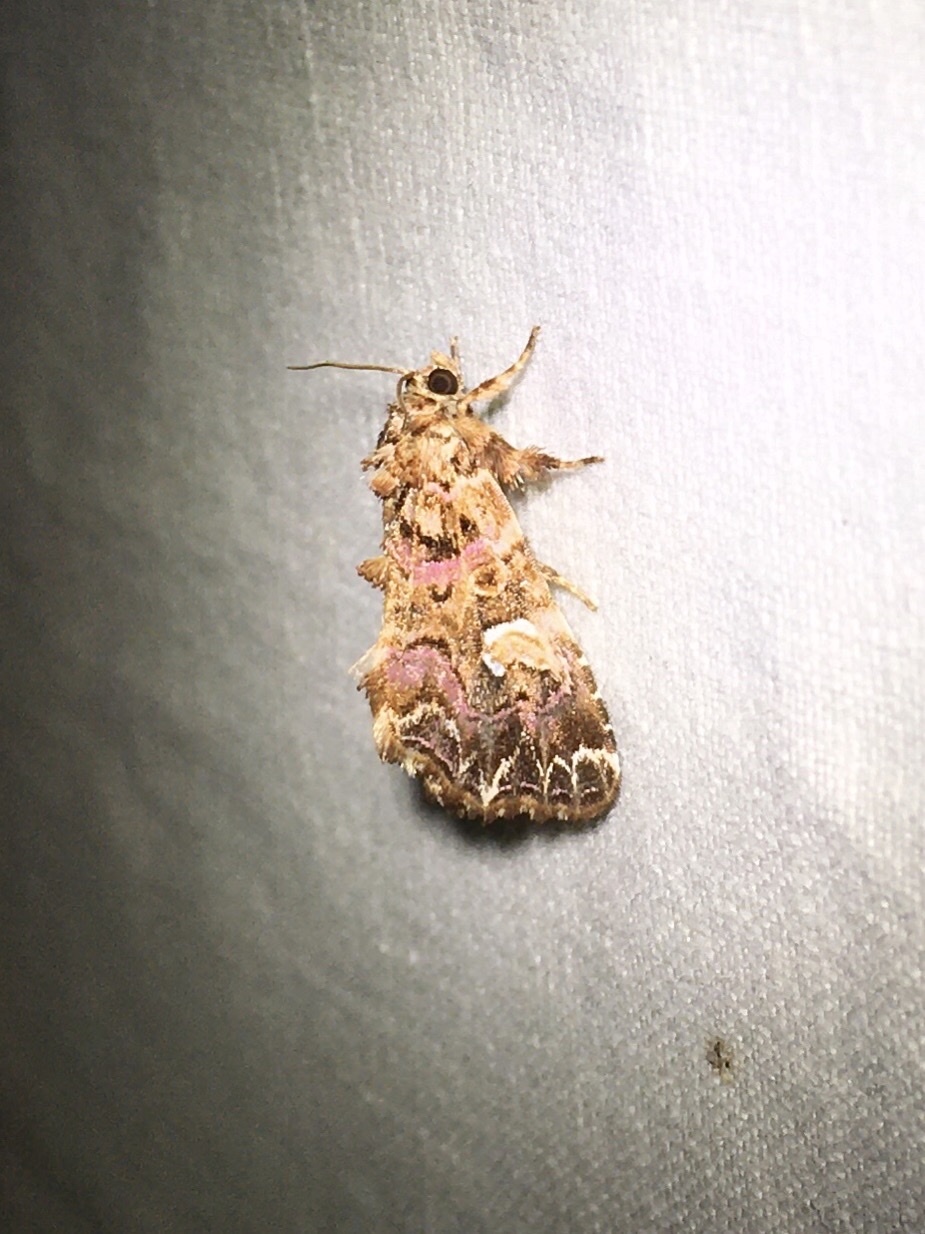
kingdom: Animalia
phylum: Arthropoda
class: Insecta
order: Lepidoptera
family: Noctuidae
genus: Callopistria
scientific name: Callopistria mollissima
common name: Pink-shaded fern moth
